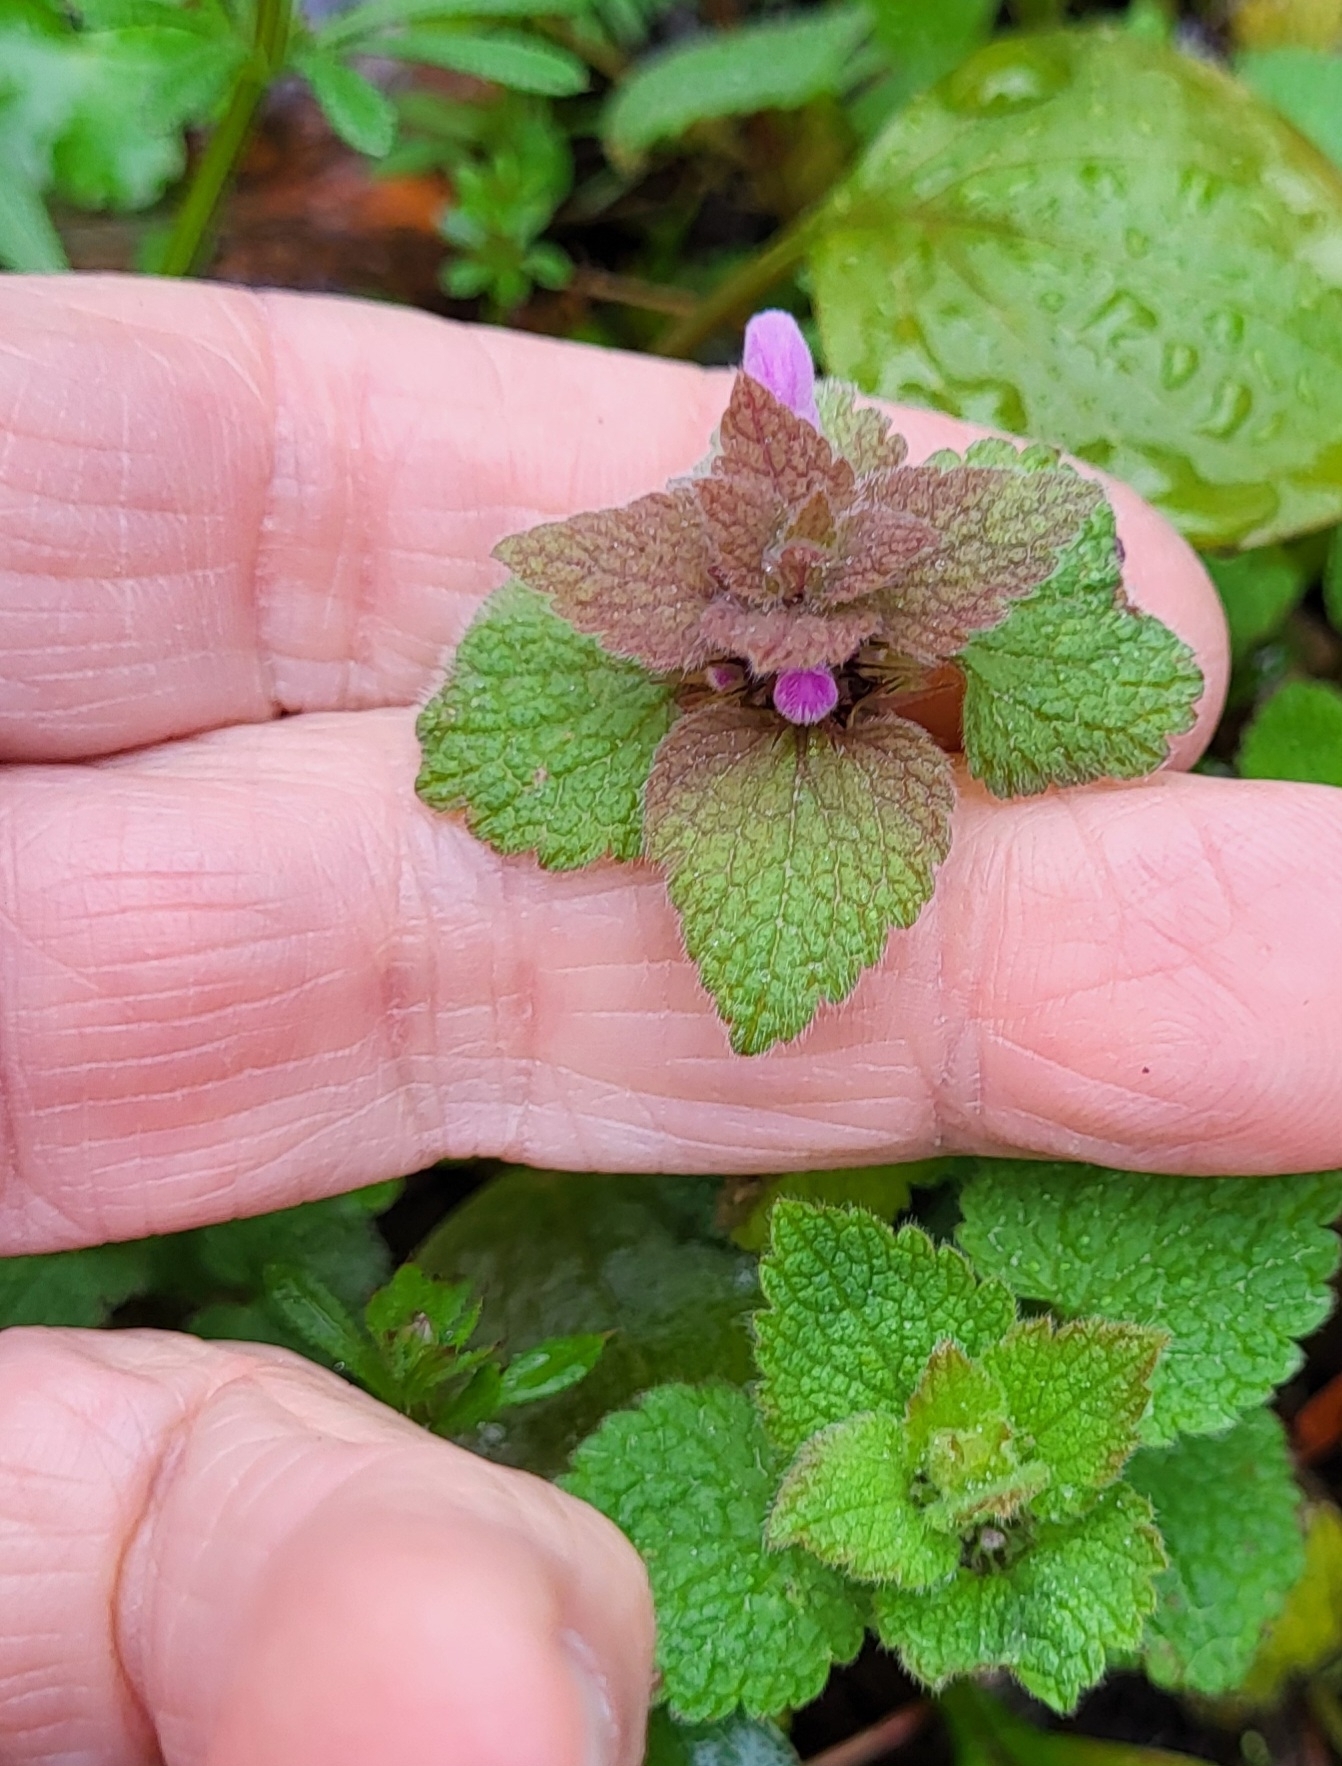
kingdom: Plantae
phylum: Tracheophyta
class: Magnoliopsida
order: Lamiales
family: Lamiaceae
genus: Lamium
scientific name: Lamium purpureum
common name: Red dead-nettle
